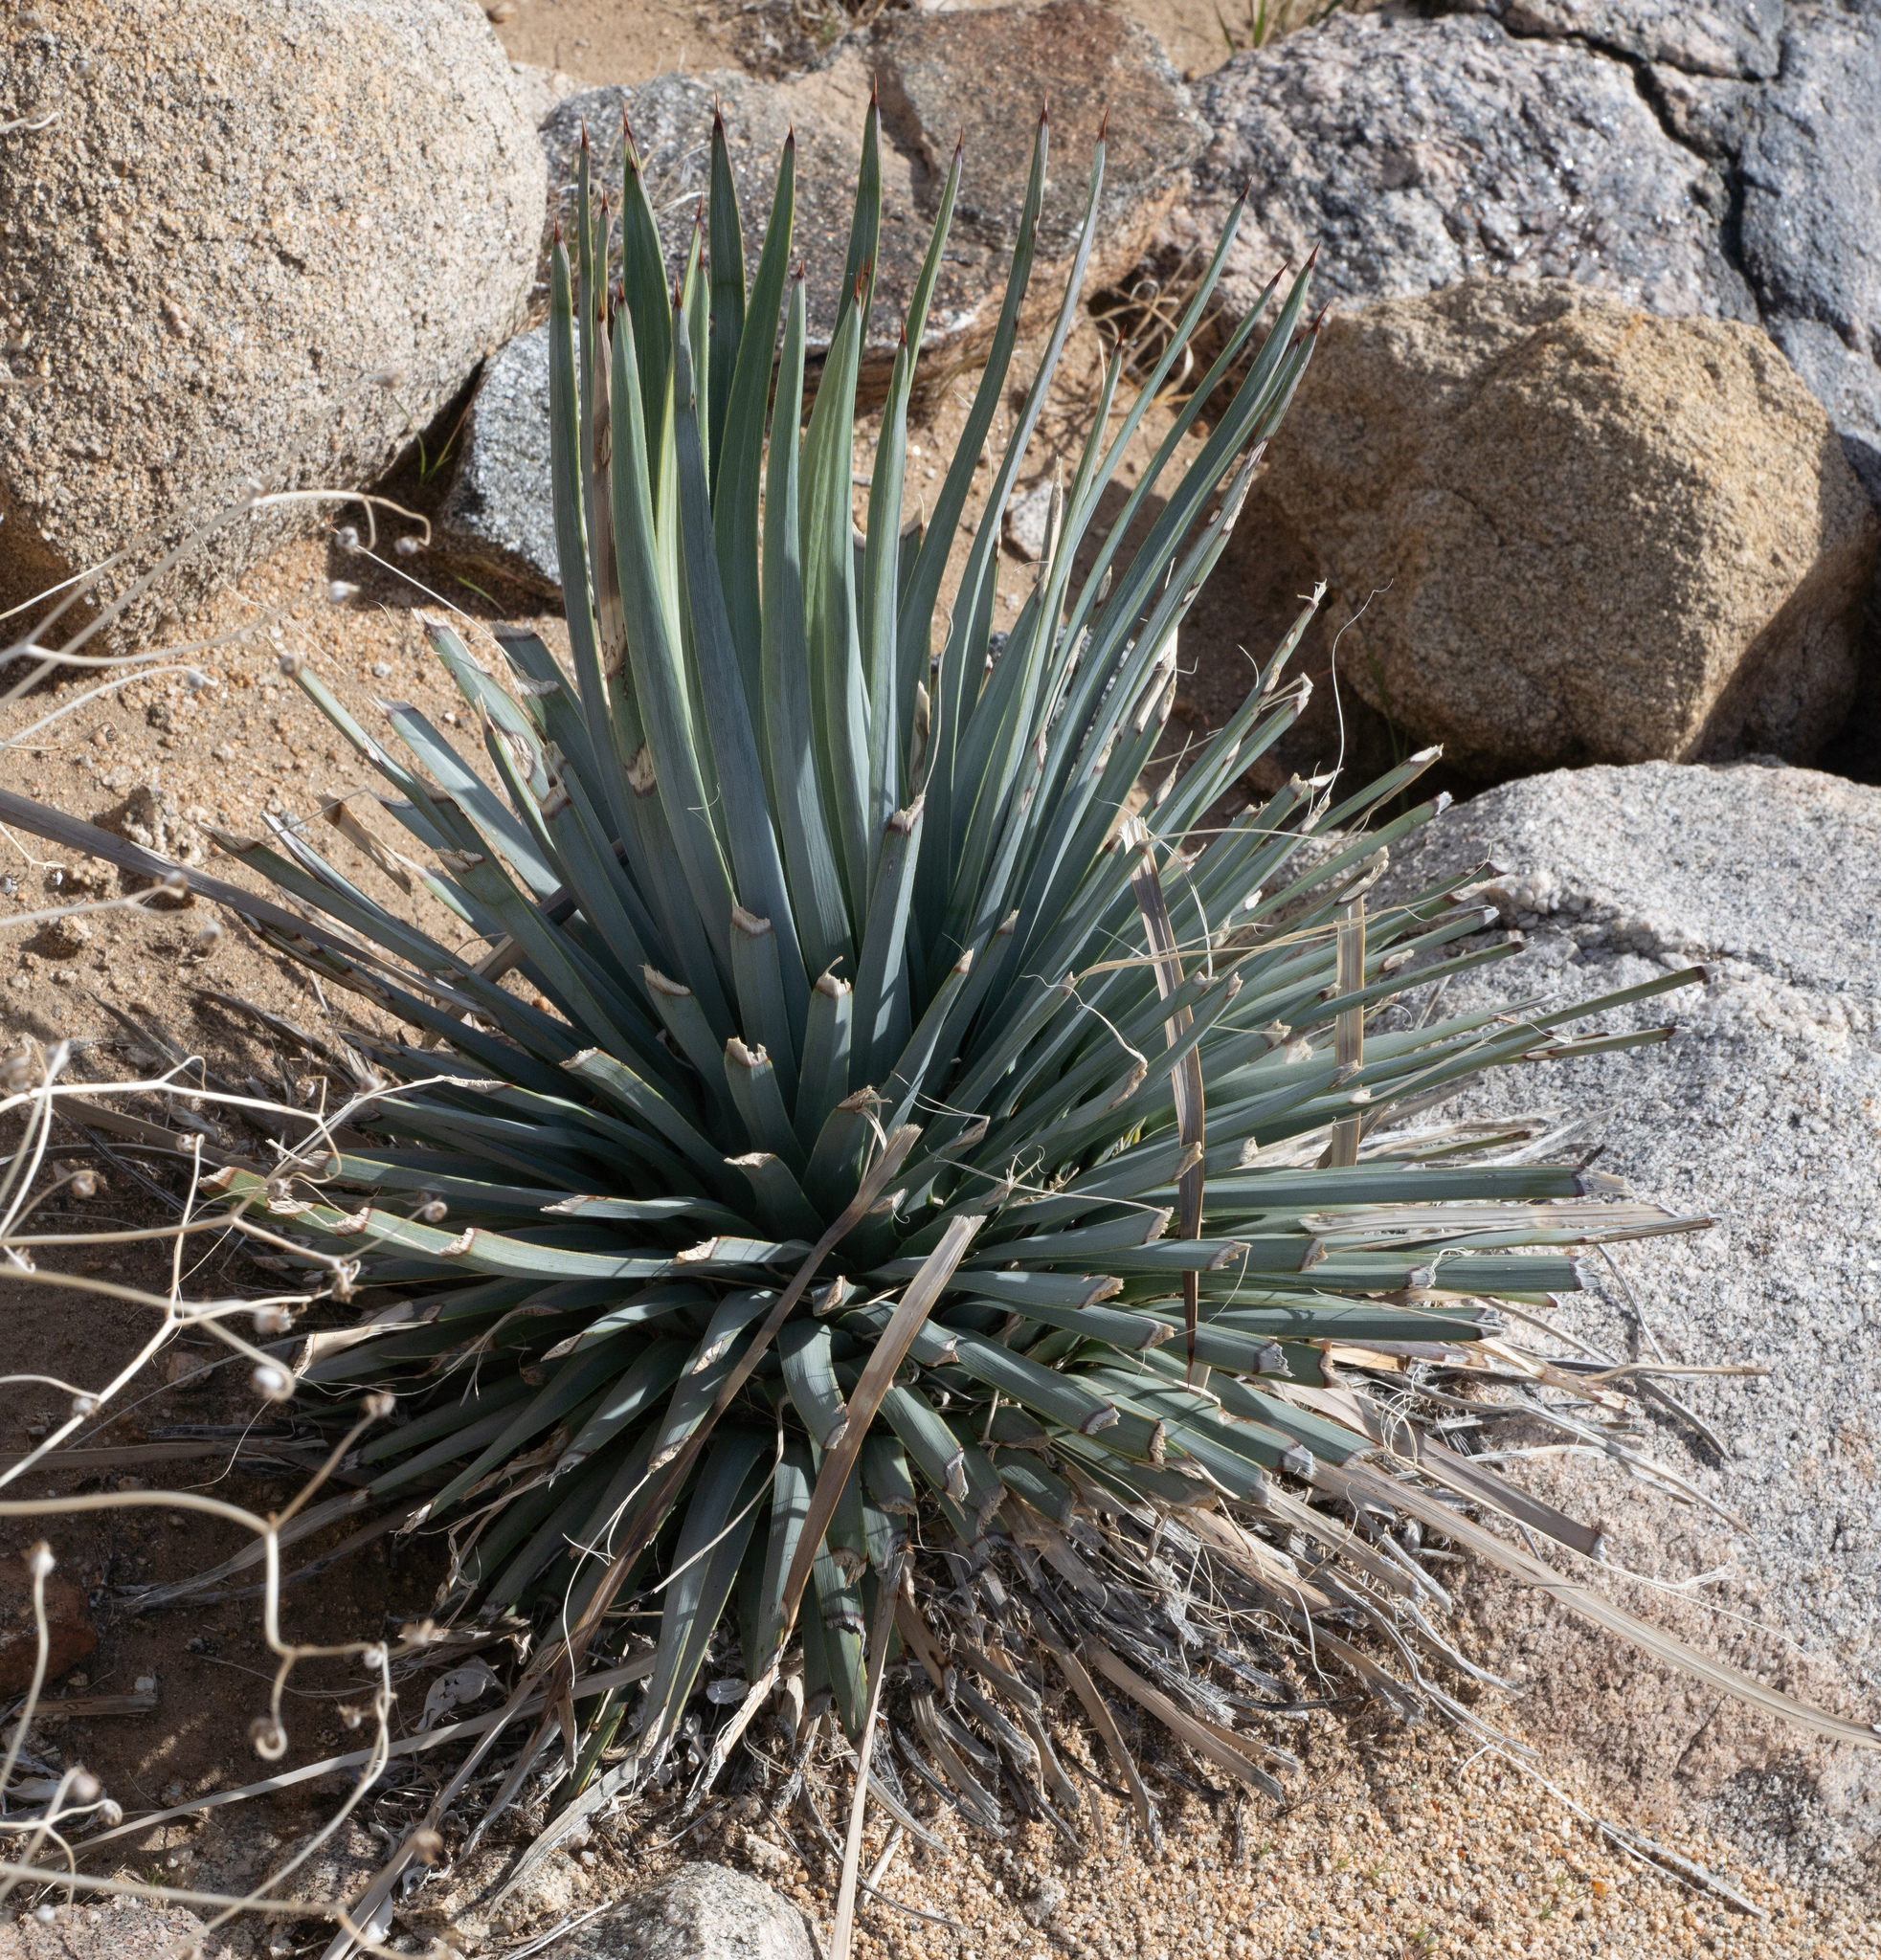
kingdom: Plantae
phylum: Tracheophyta
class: Liliopsida
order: Asparagales
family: Asparagaceae
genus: Hesperoyucca
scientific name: Hesperoyucca whipplei
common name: Our lord's-candle
